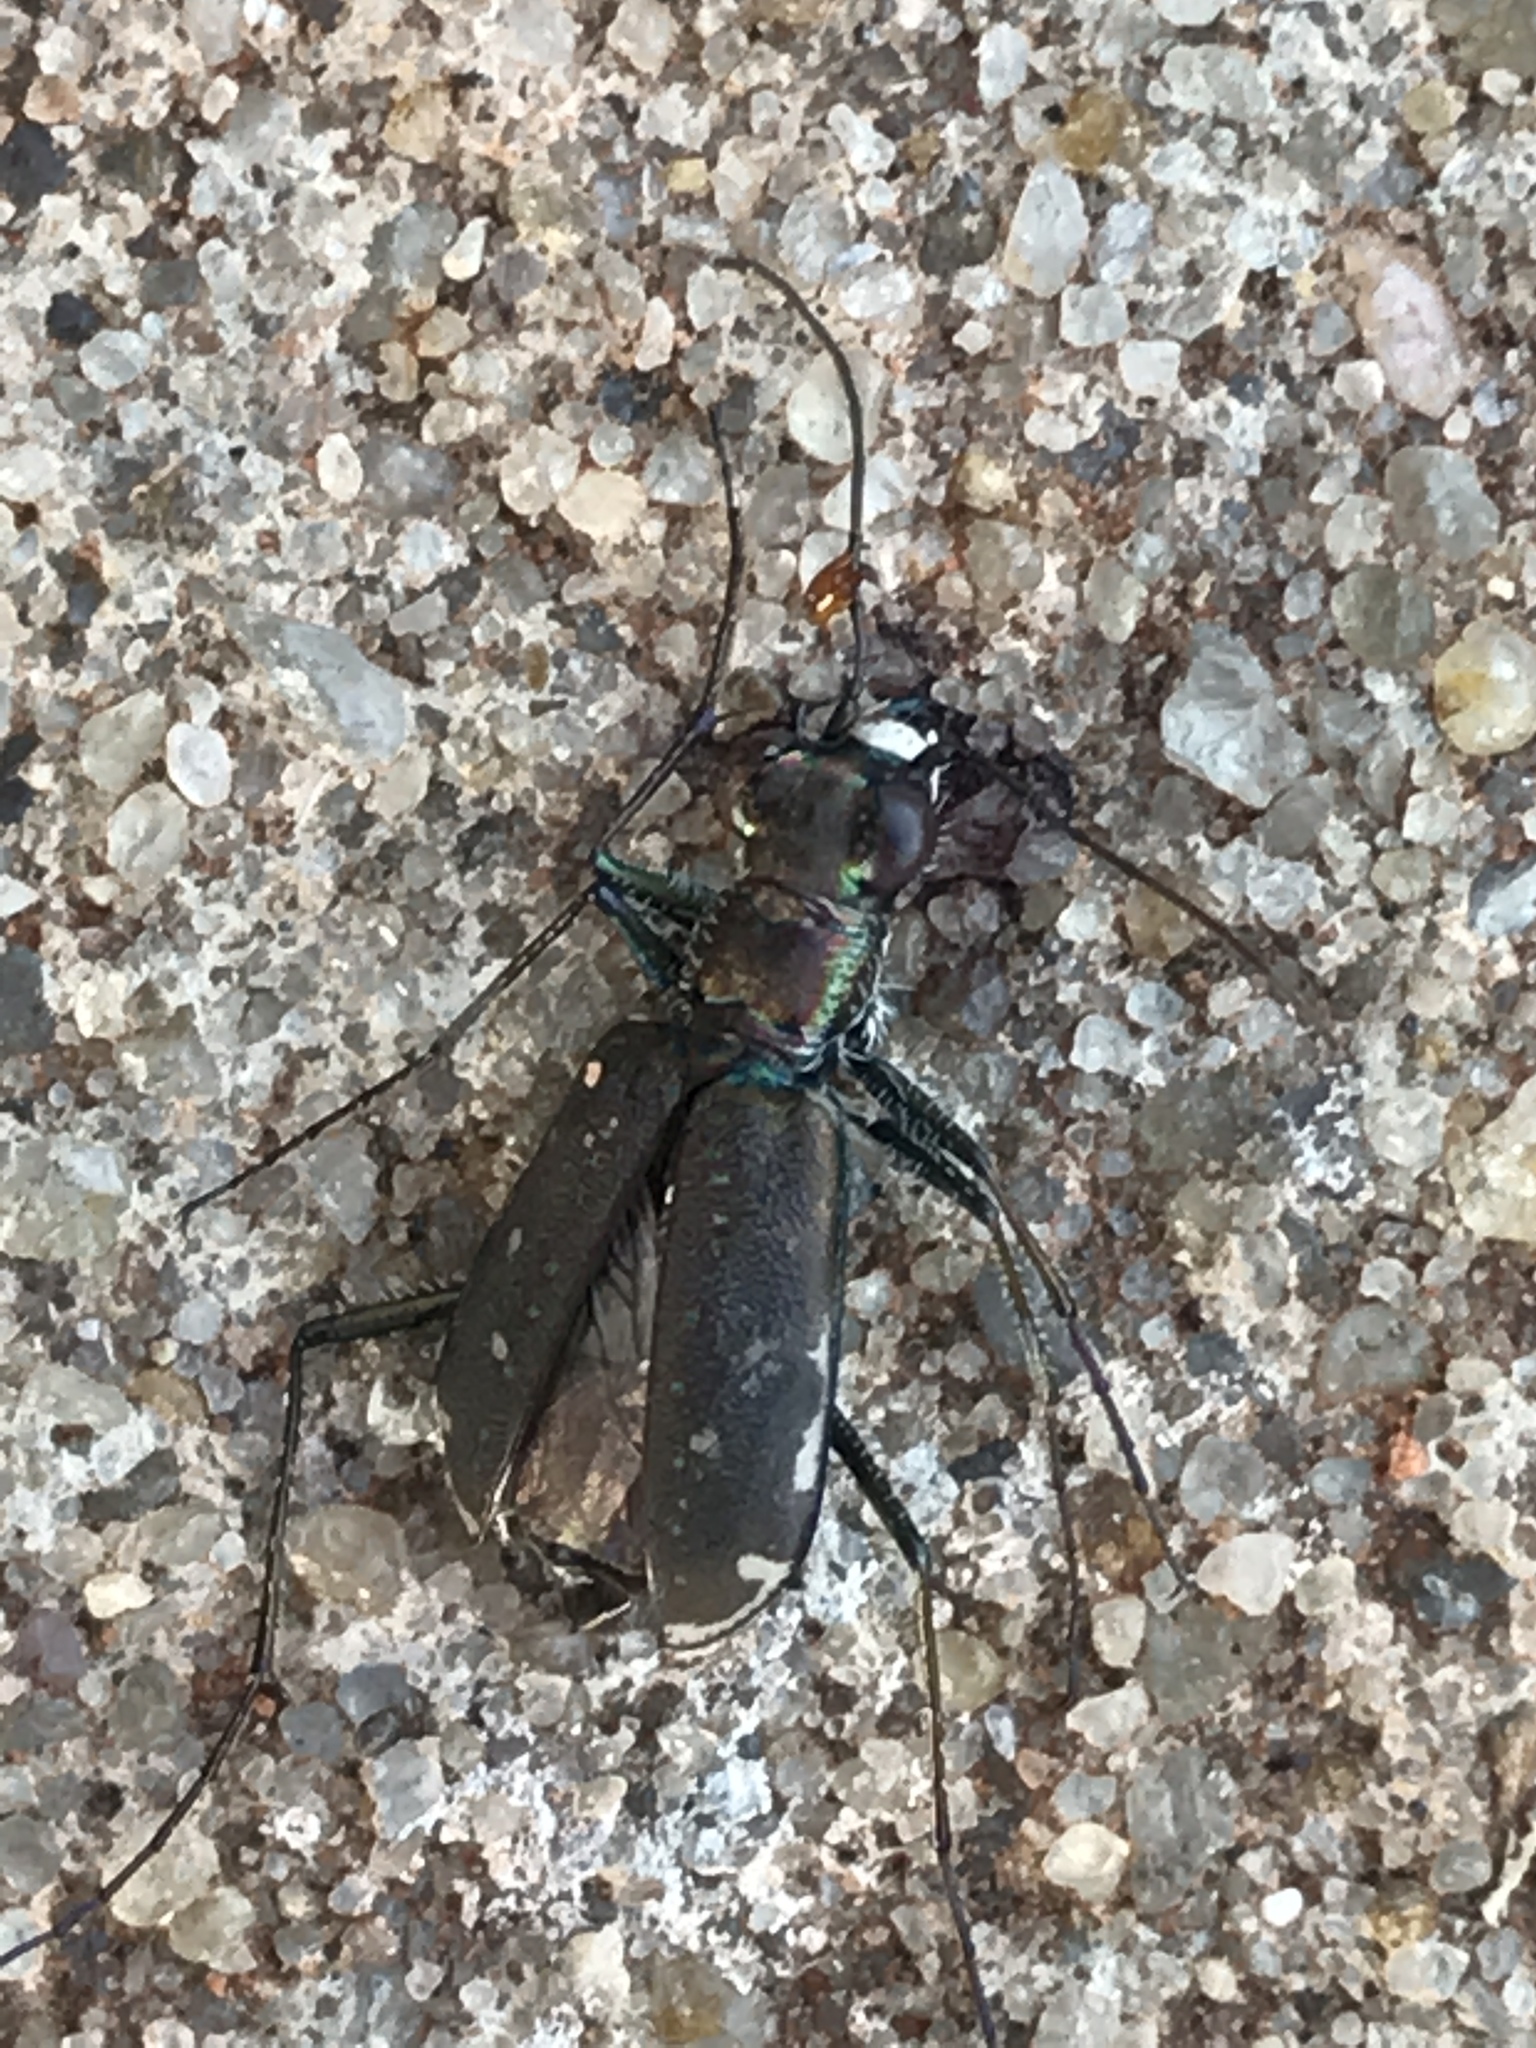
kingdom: Animalia
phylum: Arthropoda
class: Insecta
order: Coleoptera
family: Carabidae
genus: Cicindela
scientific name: Cicindela punctulata
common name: Punctured tiger beetle
